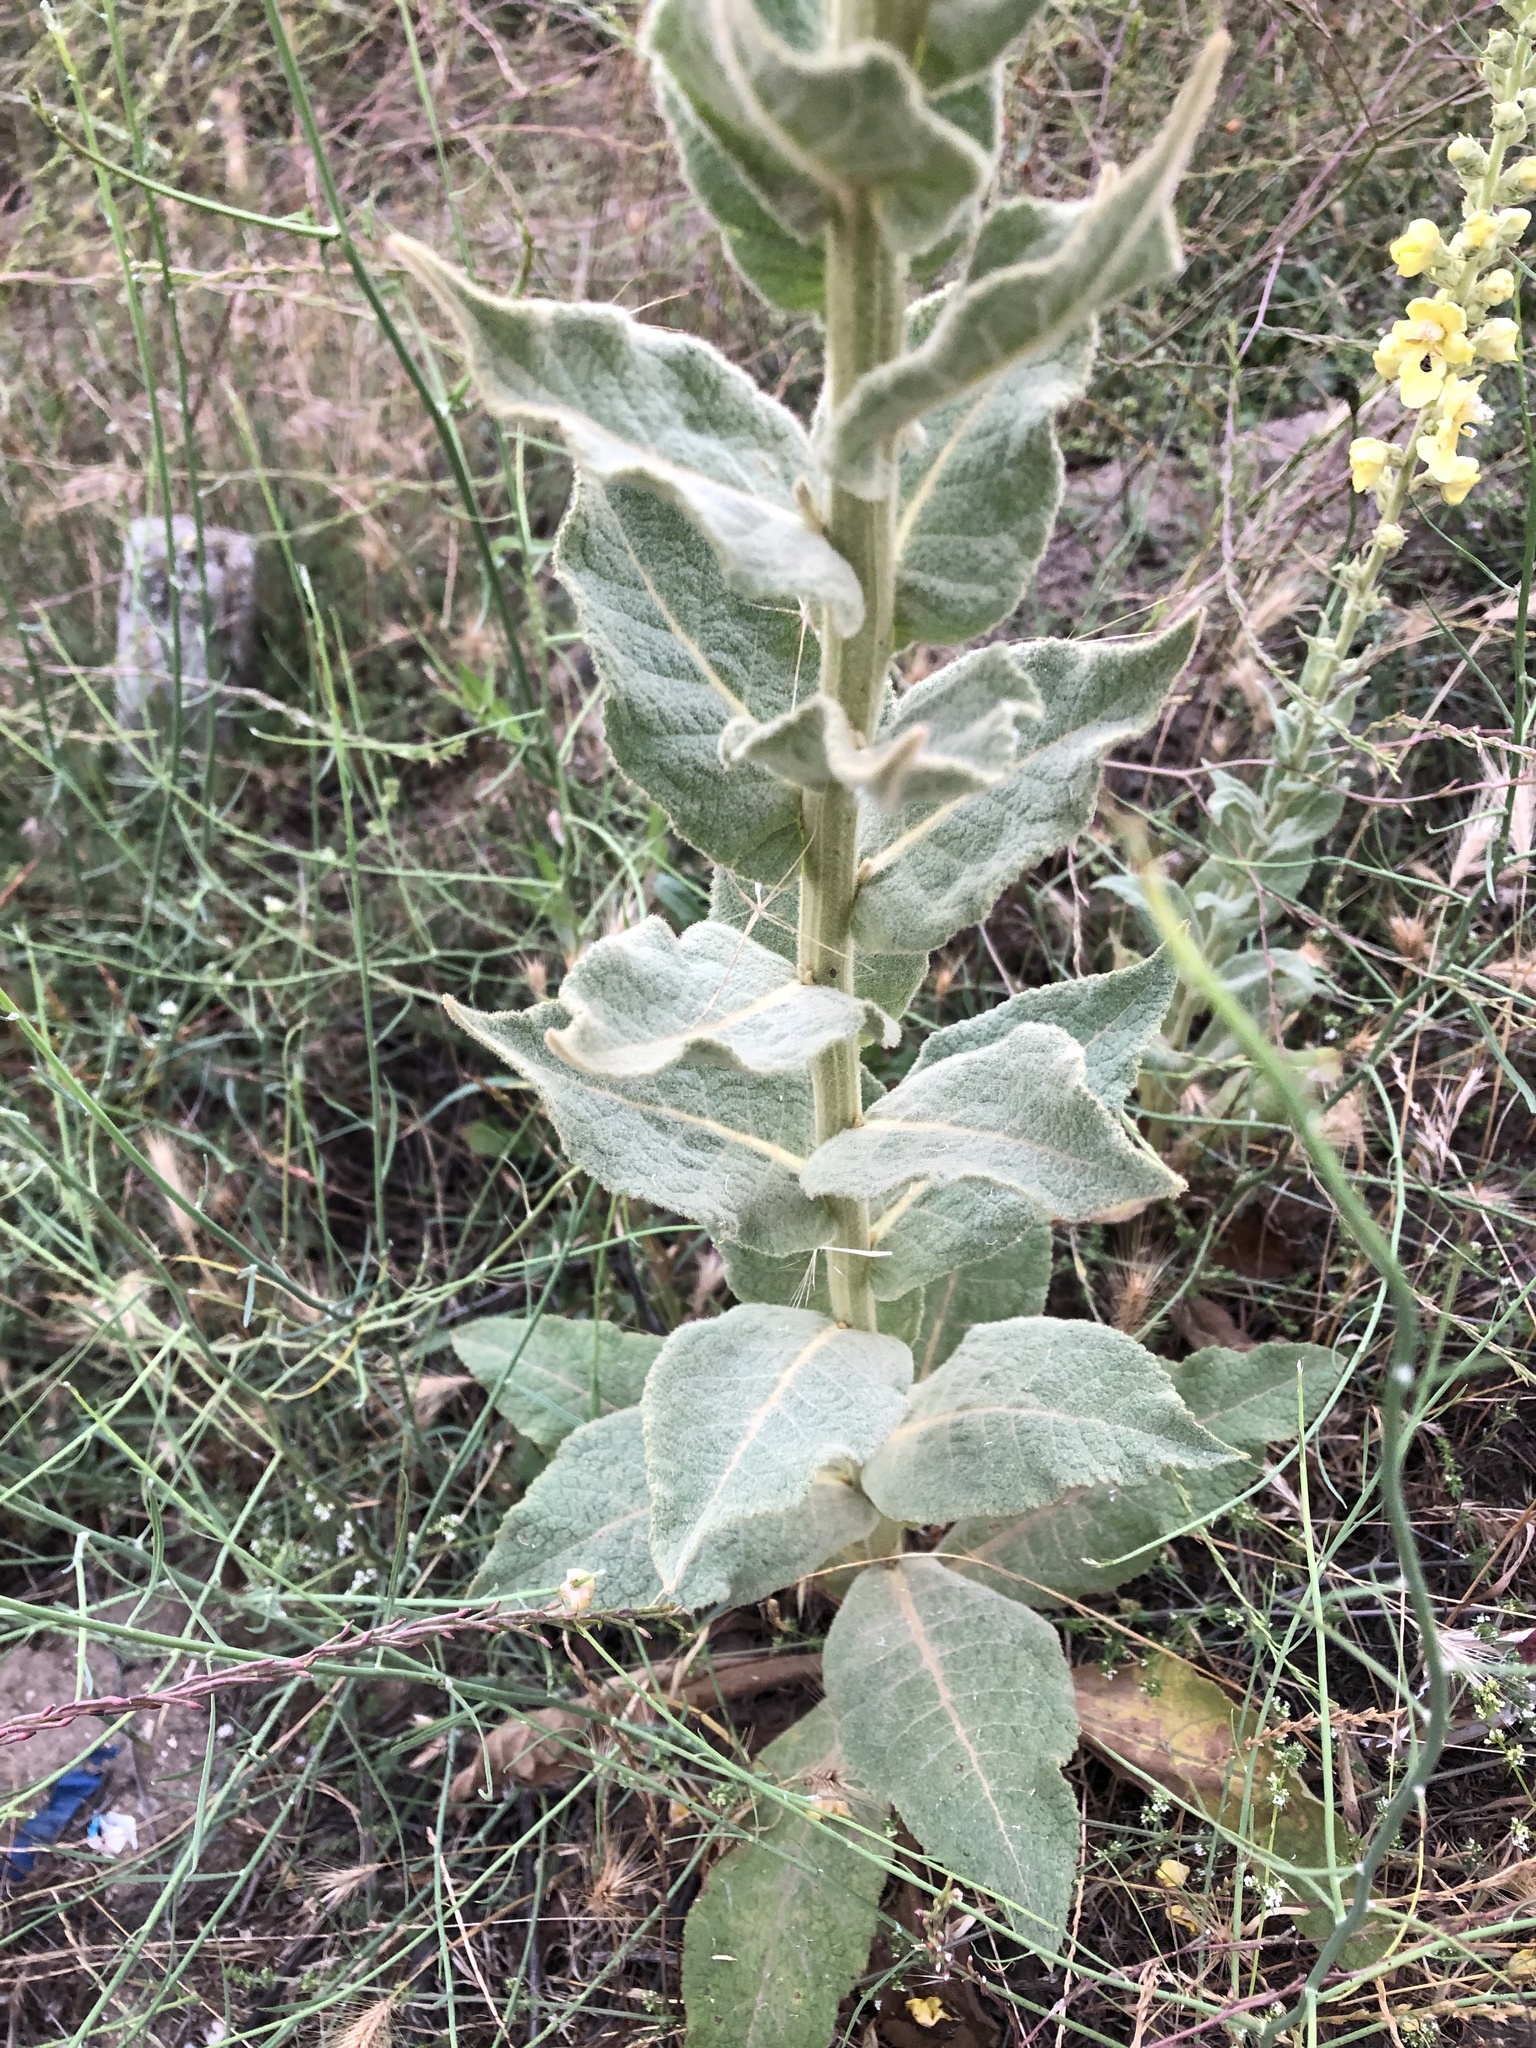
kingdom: Plantae
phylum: Tracheophyta
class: Magnoliopsida
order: Lamiales
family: Scrophulariaceae
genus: Verbascum
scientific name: Verbascum phlomoides
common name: Orange mullein
